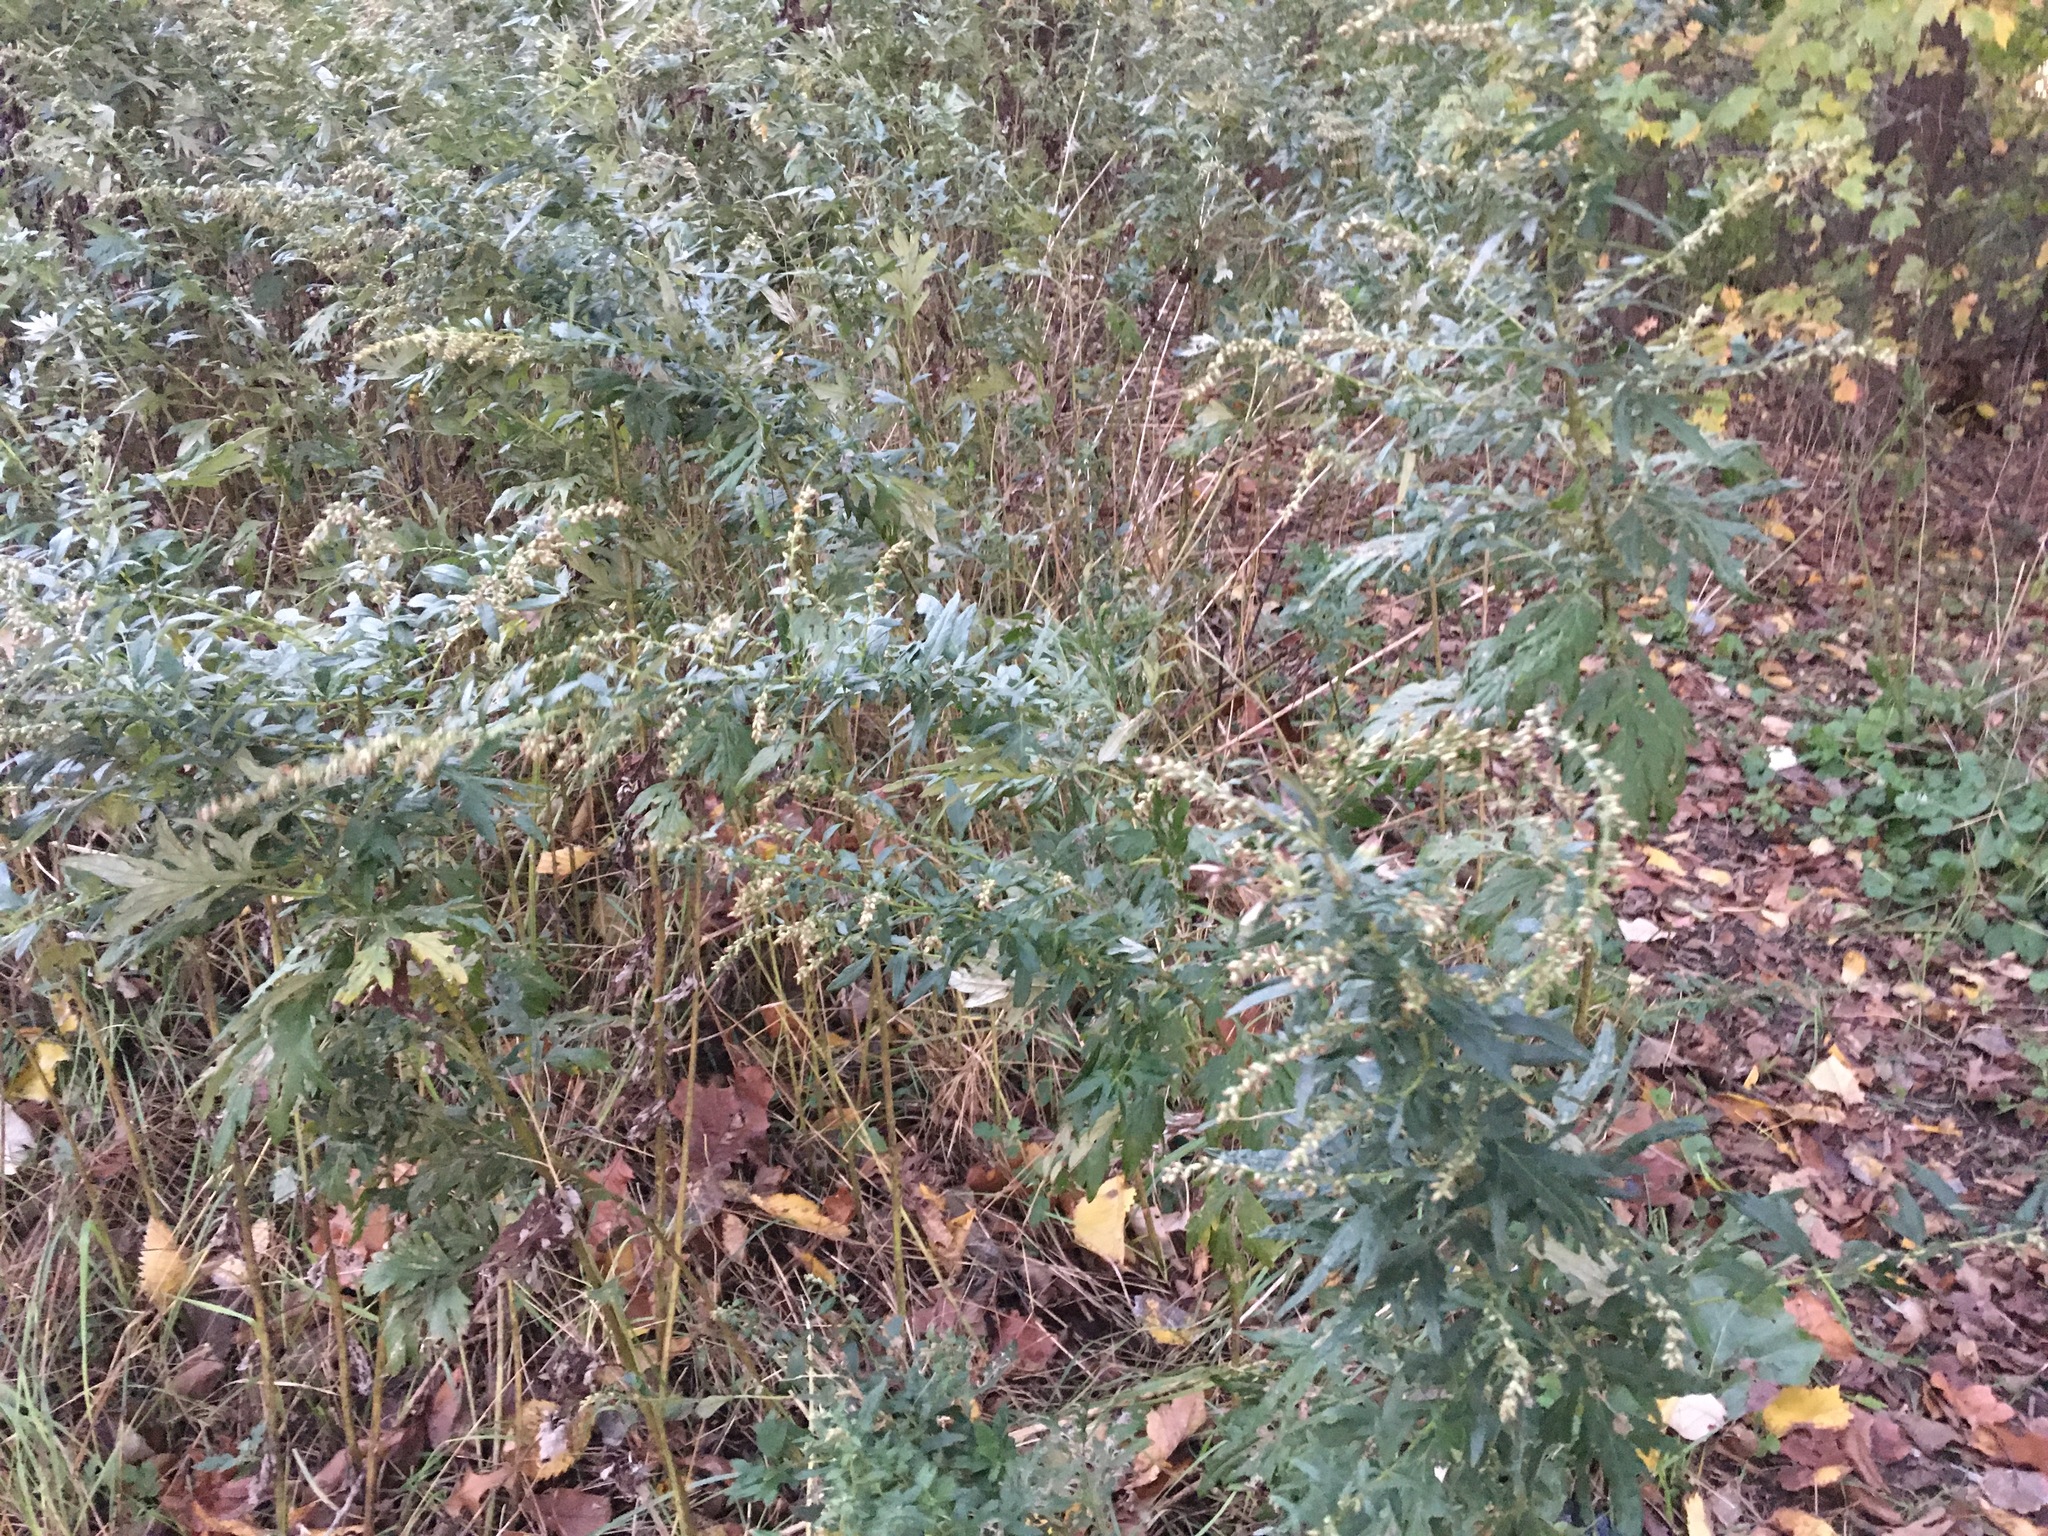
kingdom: Plantae
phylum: Tracheophyta
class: Magnoliopsida
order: Asterales
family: Asteraceae
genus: Artemisia
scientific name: Artemisia vulgaris
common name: Mugwort
